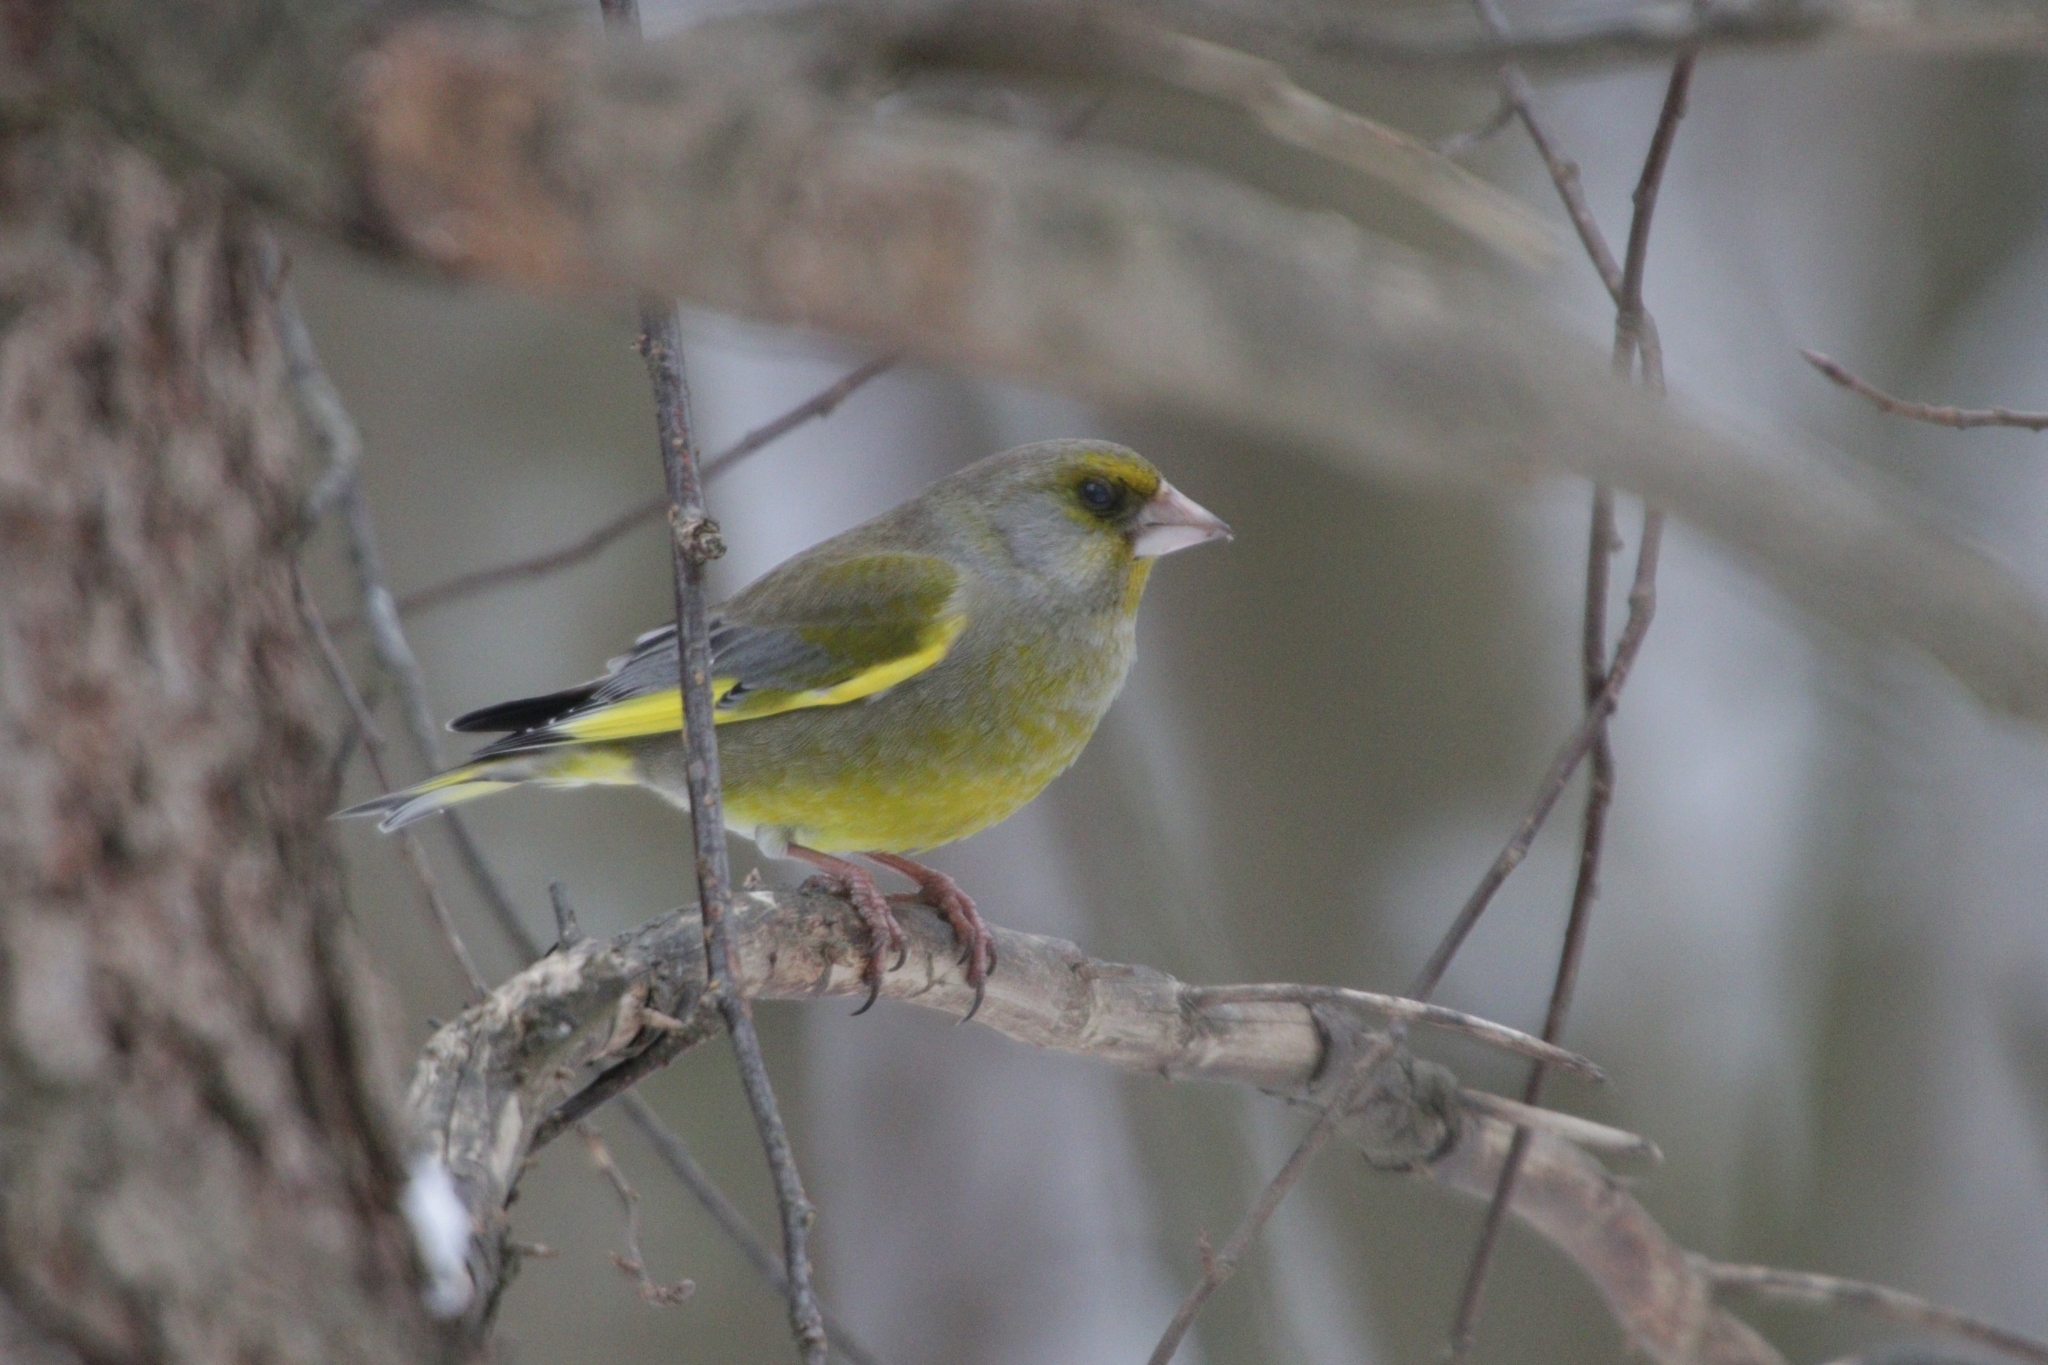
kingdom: Plantae
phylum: Tracheophyta
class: Liliopsida
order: Poales
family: Poaceae
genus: Chloris
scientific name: Chloris chloris
